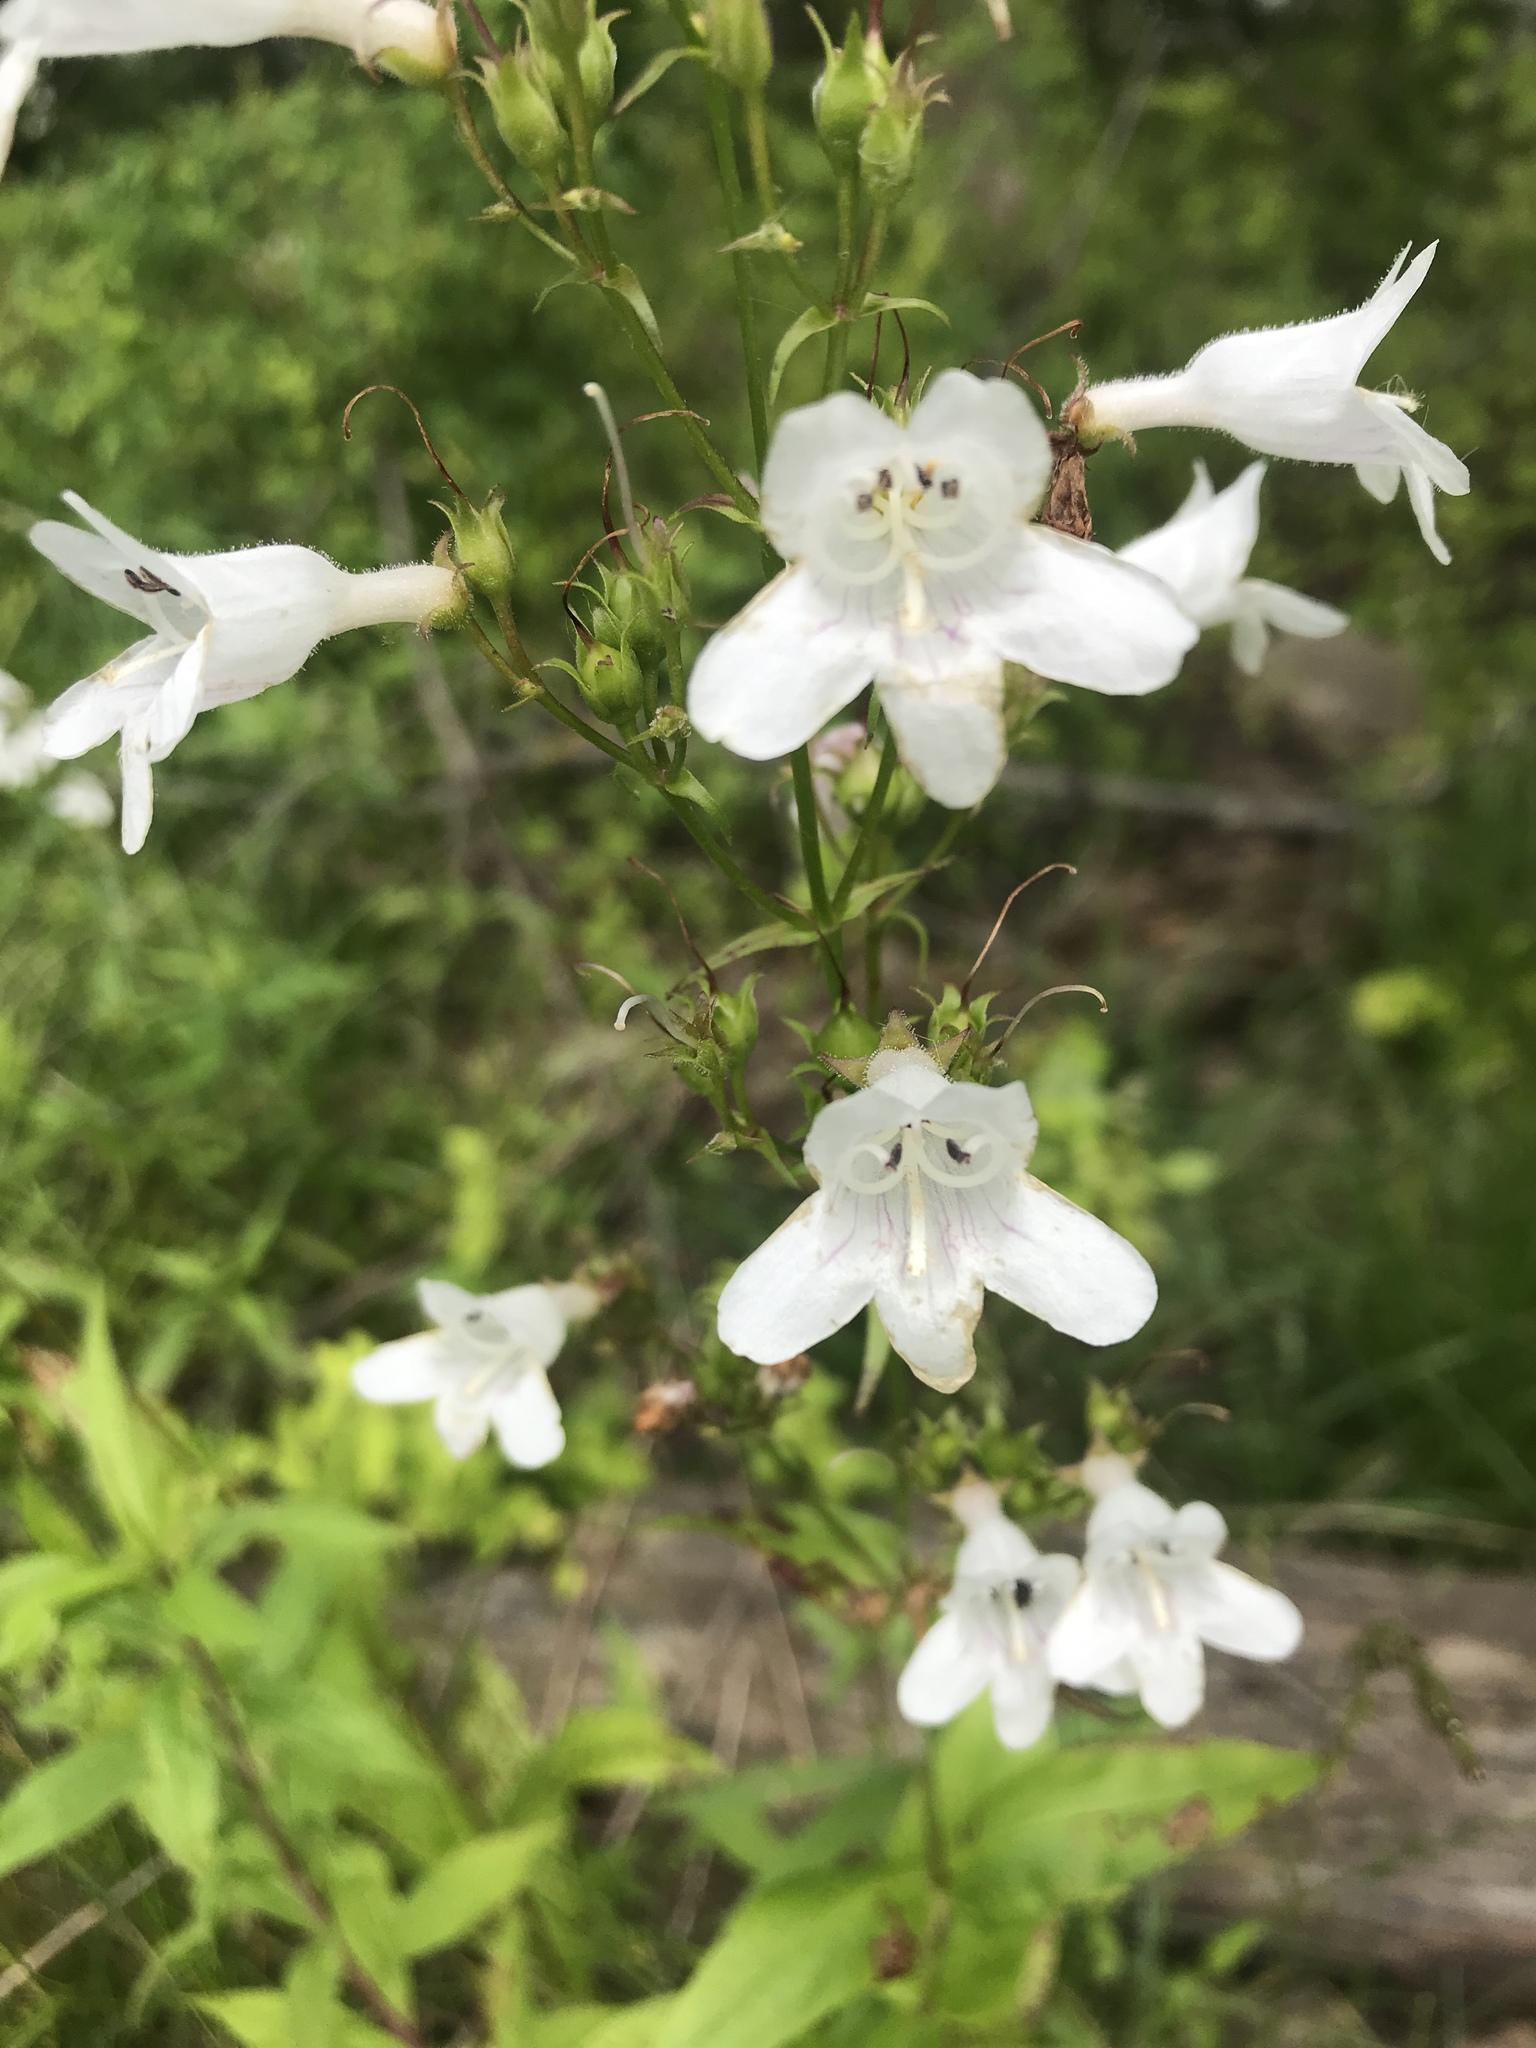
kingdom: Plantae
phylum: Tracheophyta
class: Magnoliopsida
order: Lamiales
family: Plantaginaceae
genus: Penstemon
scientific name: Penstemon digitalis
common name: Foxglove beardtongue
